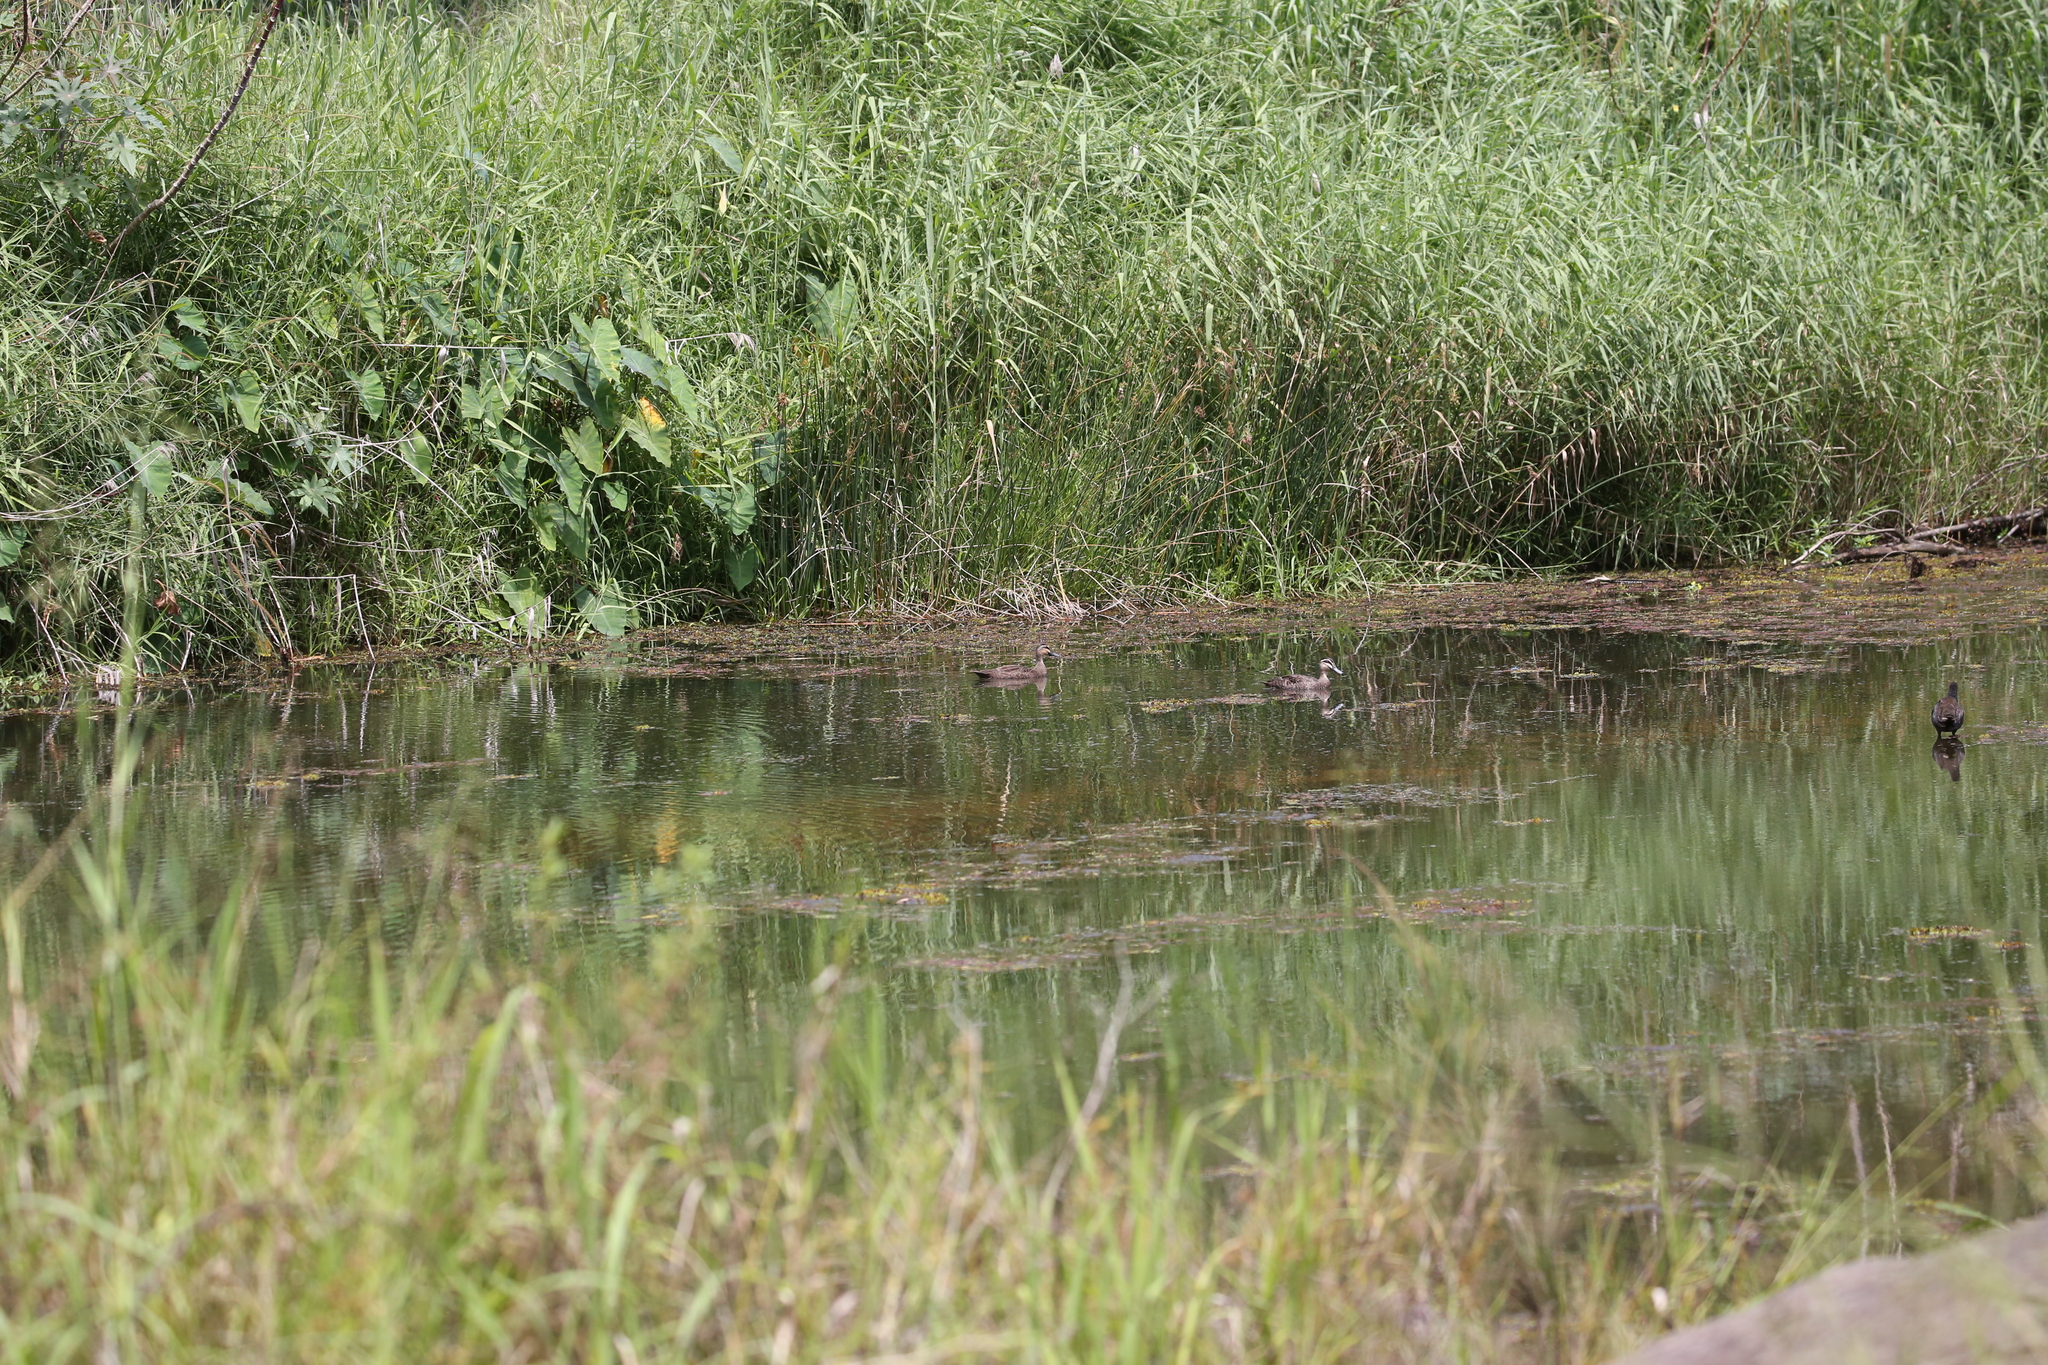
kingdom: Animalia
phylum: Chordata
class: Aves
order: Anseriformes
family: Anatidae
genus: Anas
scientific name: Anas superciliosa
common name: Pacific black duck
